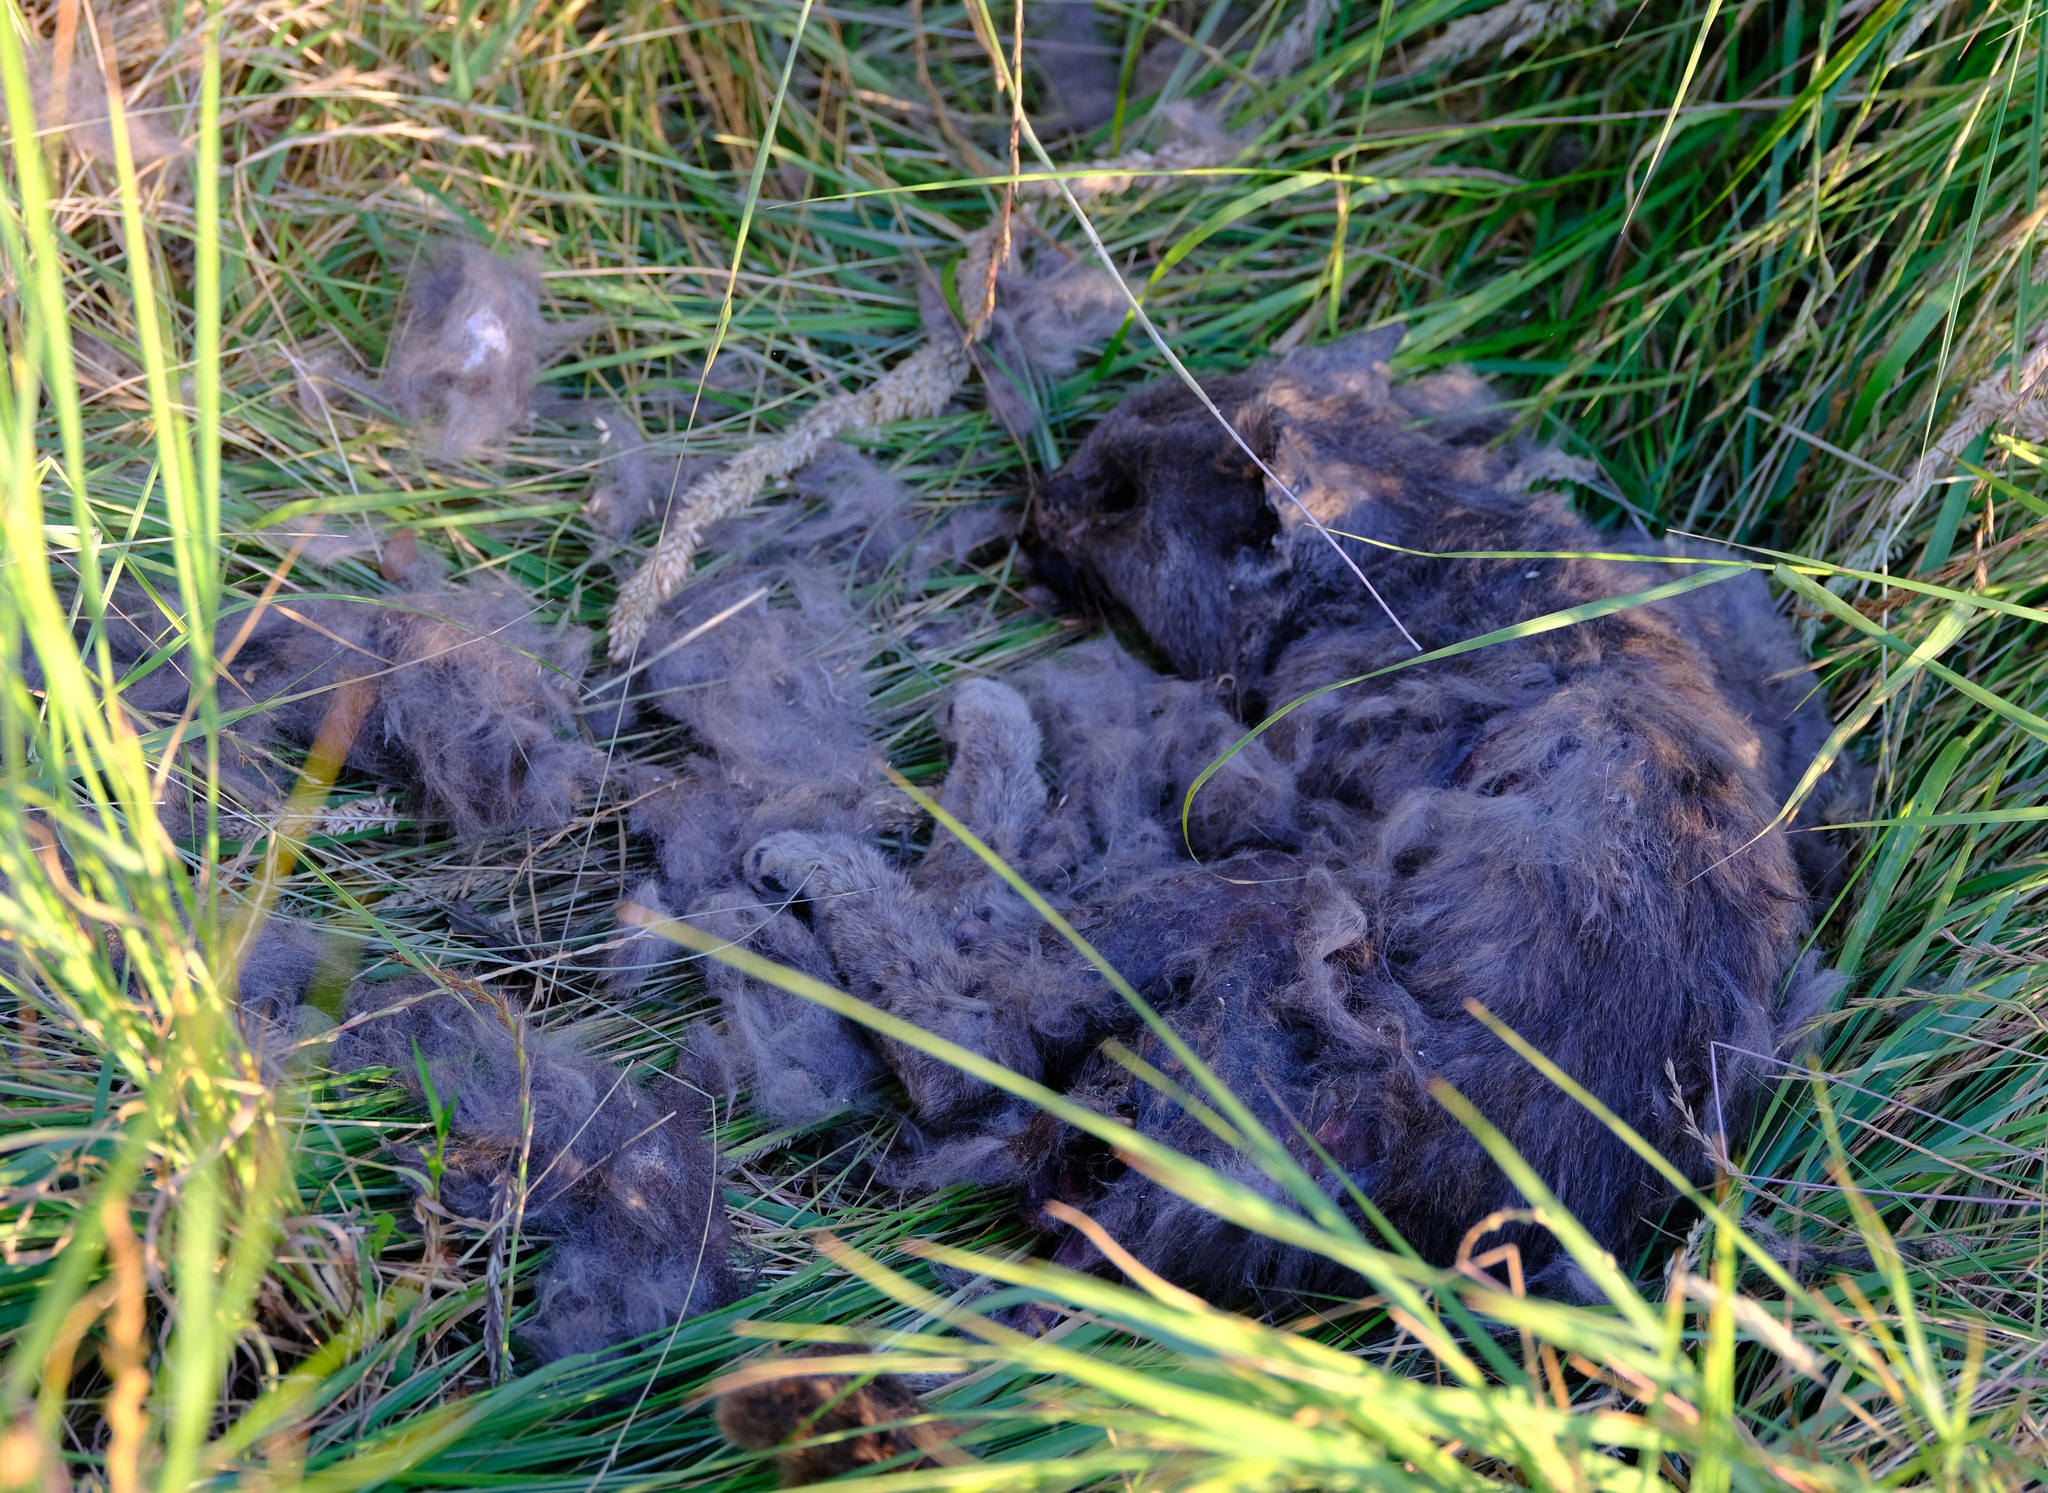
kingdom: Animalia
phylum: Chordata
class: Mammalia
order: Carnivora
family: Felidae
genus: Felis
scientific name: Felis catus
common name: Domestic cat
